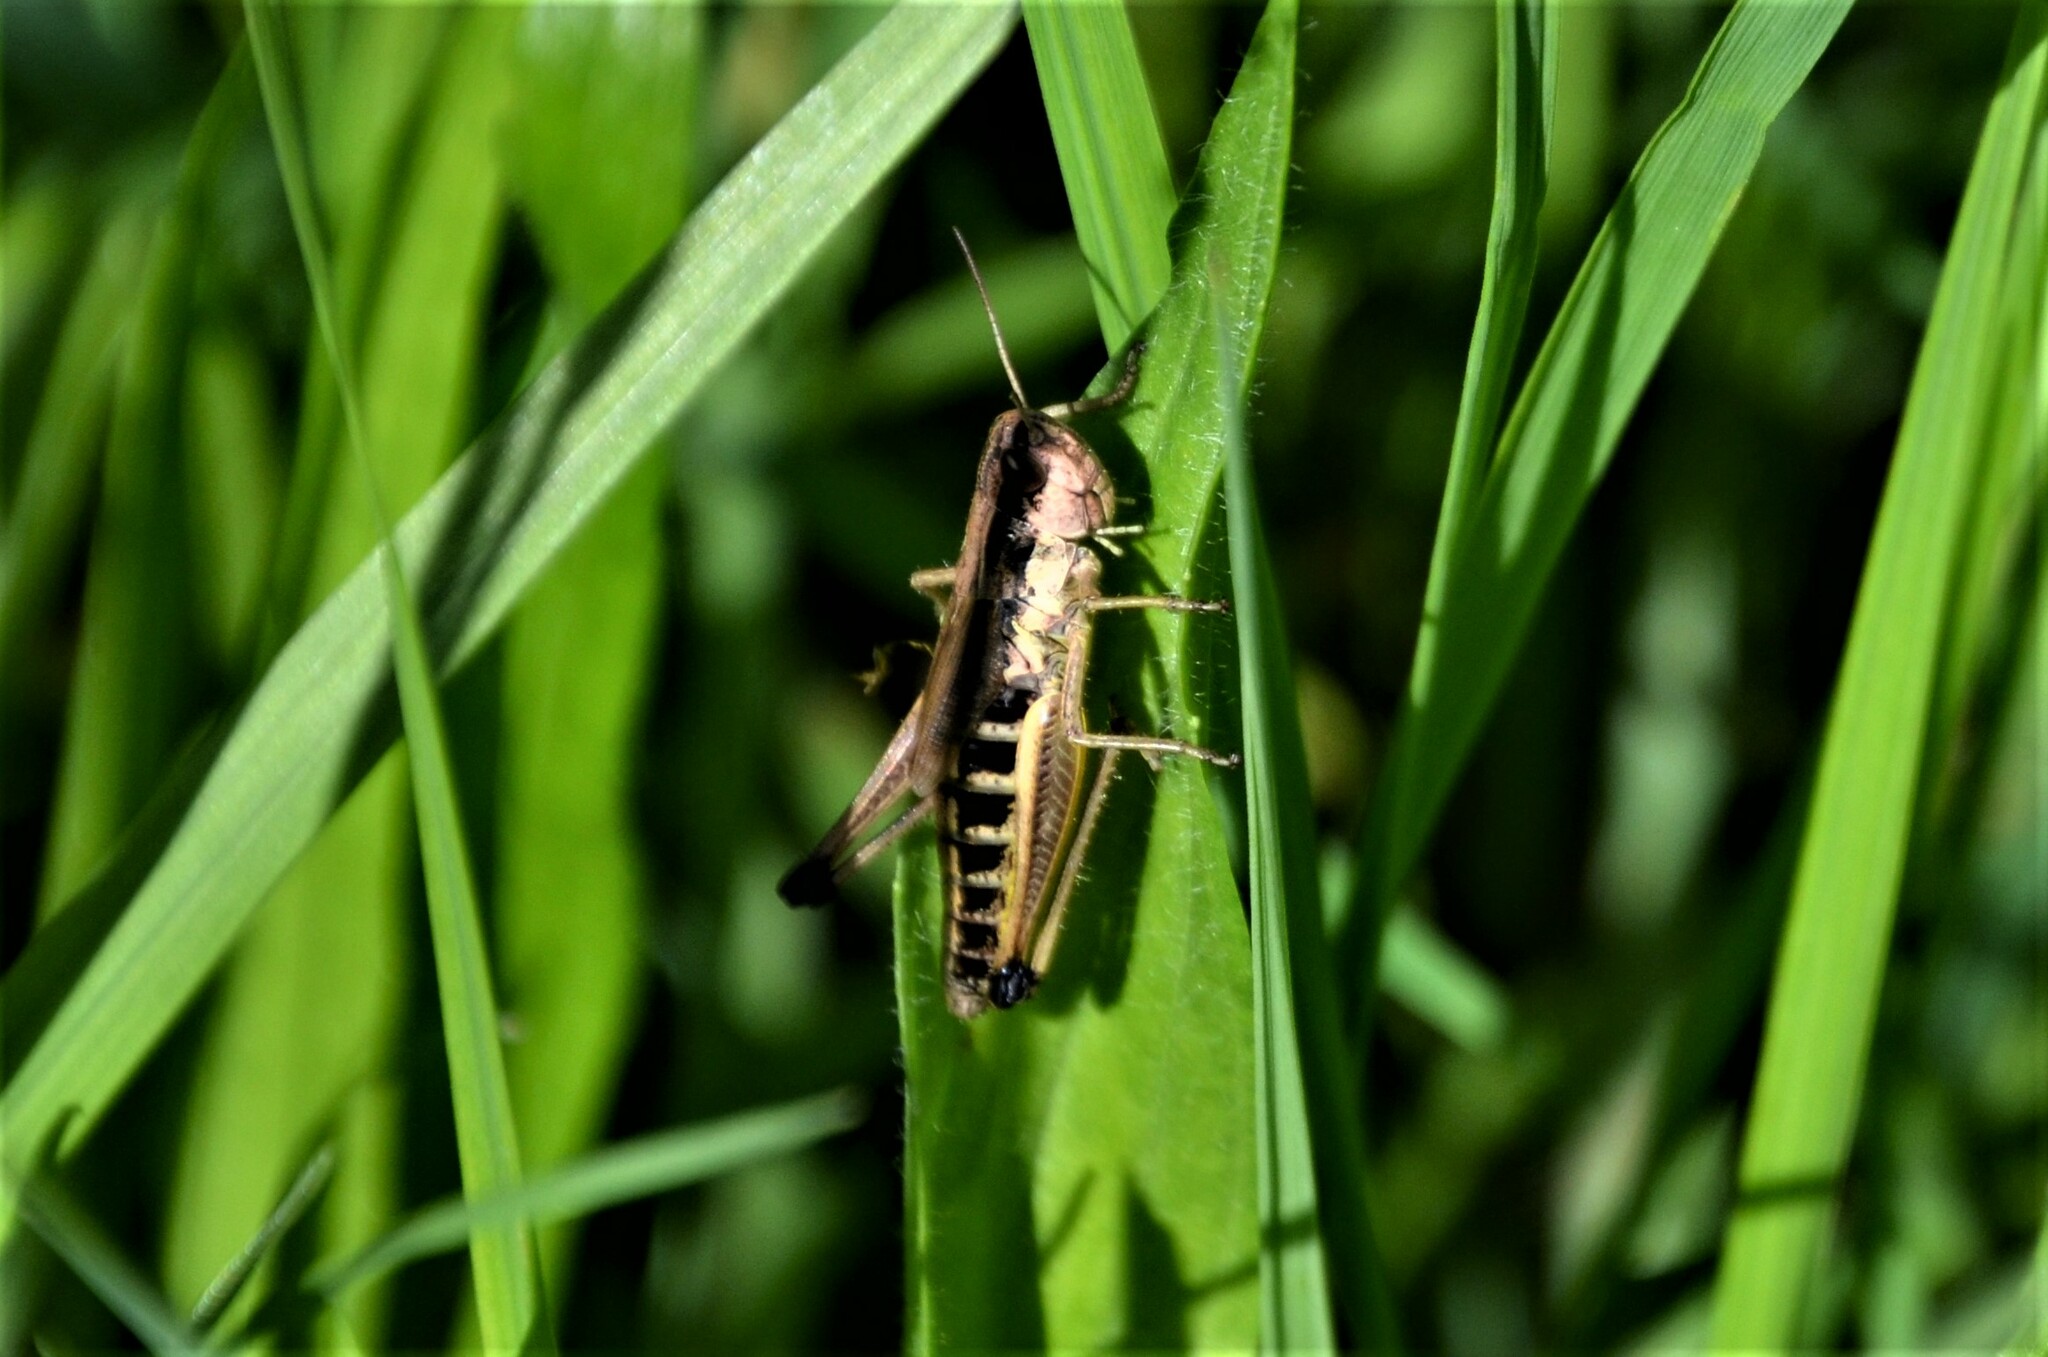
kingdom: Animalia
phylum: Arthropoda
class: Insecta
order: Orthoptera
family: Acrididae
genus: Pseudochorthippus
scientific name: Pseudochorthippus parallelus
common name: Meadow grasshopper
